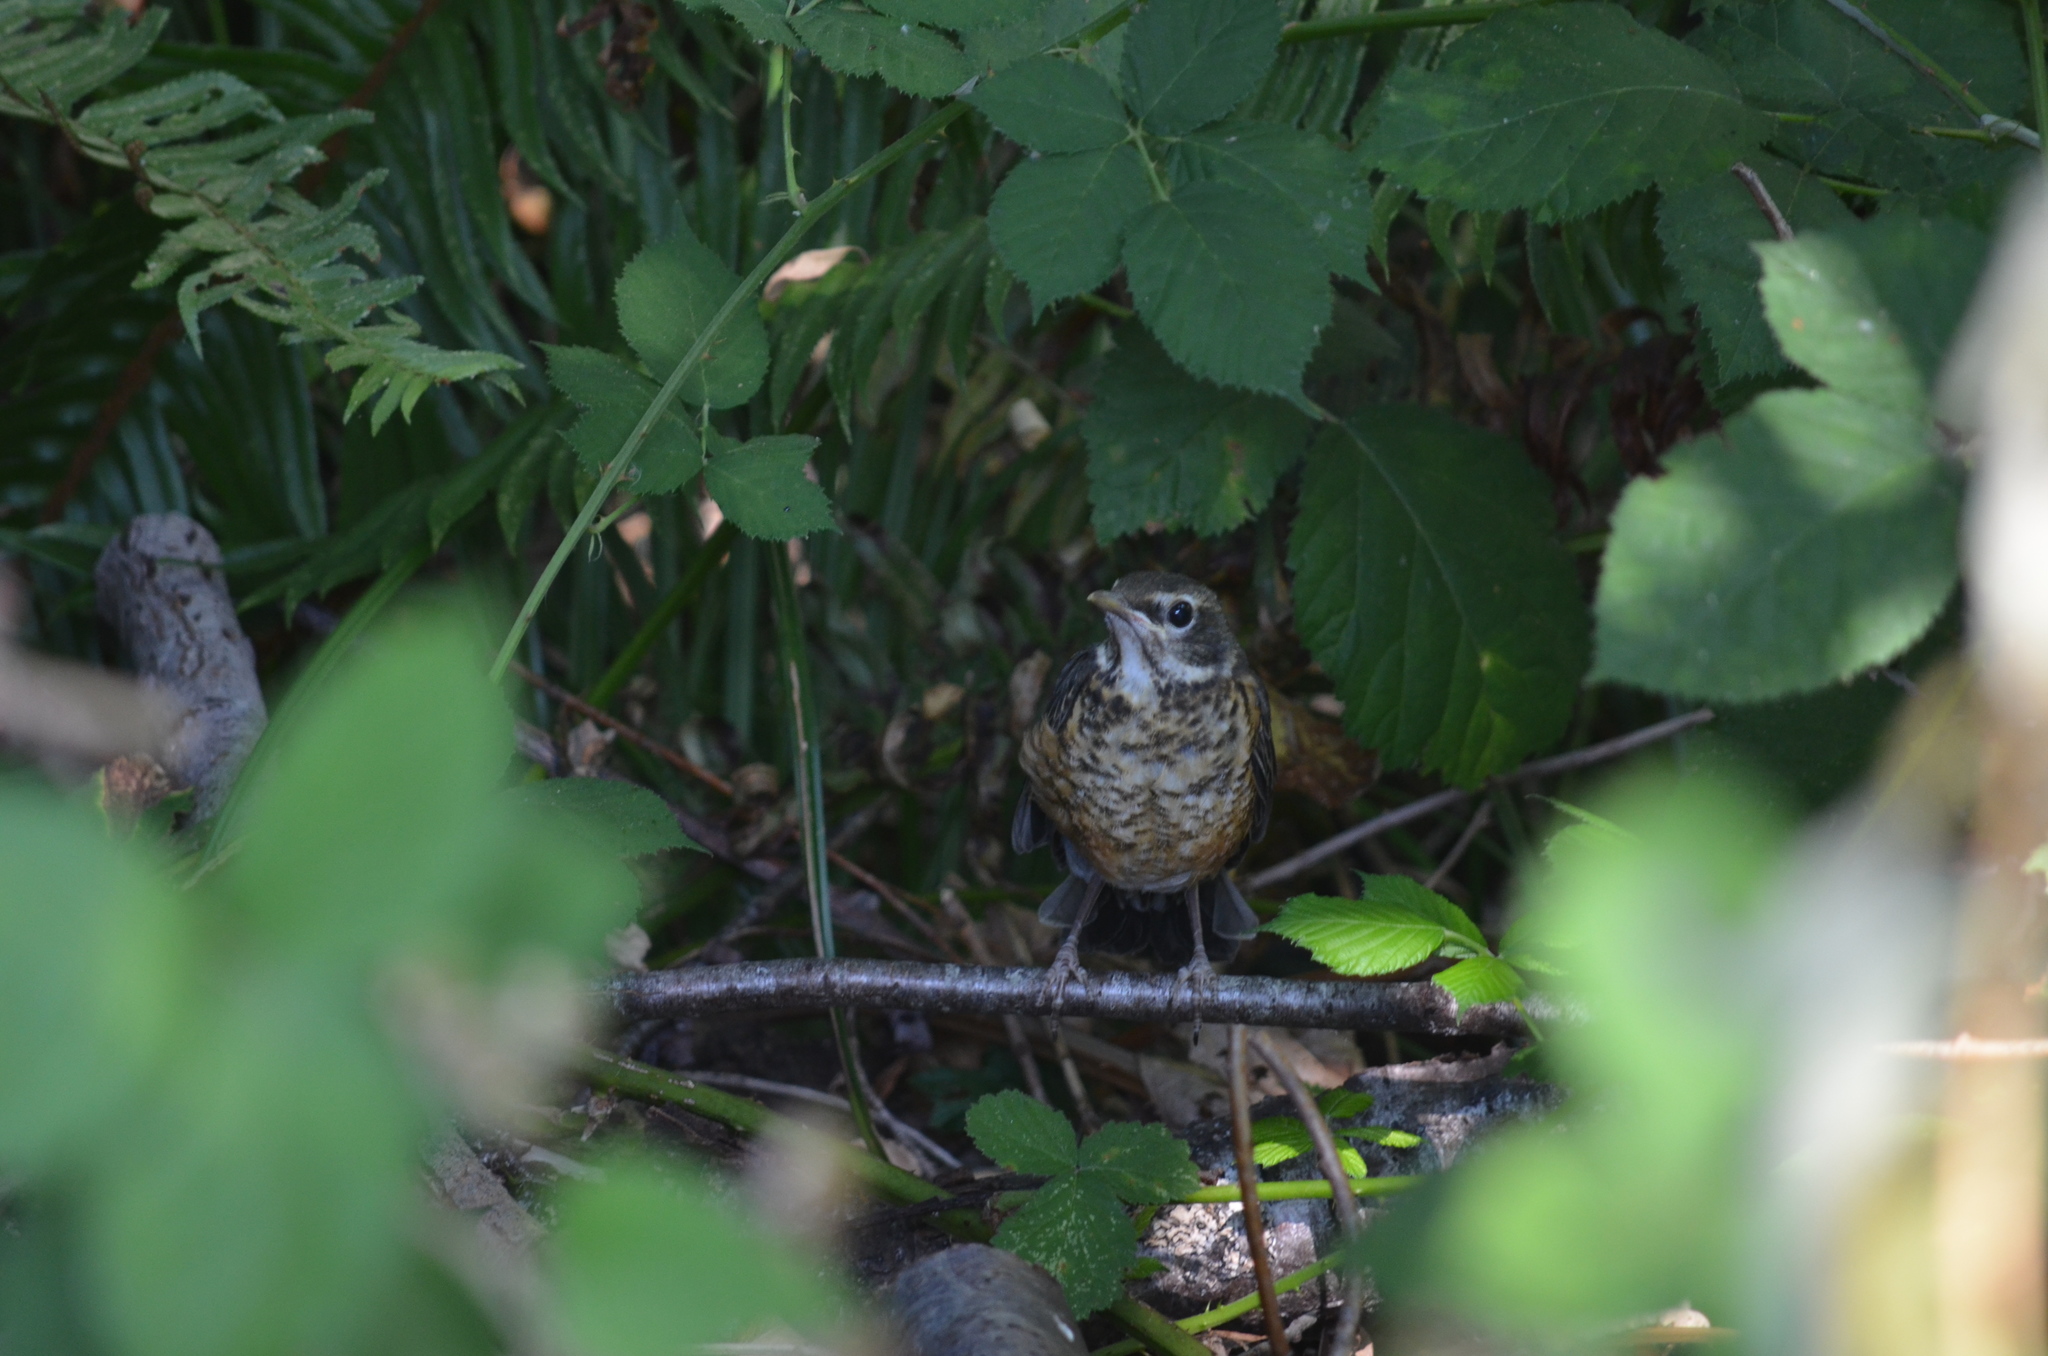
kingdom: Animalia
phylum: Chordata
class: Aves
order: Passeriformes
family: Turdidae
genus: Turdus
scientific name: Turdus migratorius
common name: American robin
